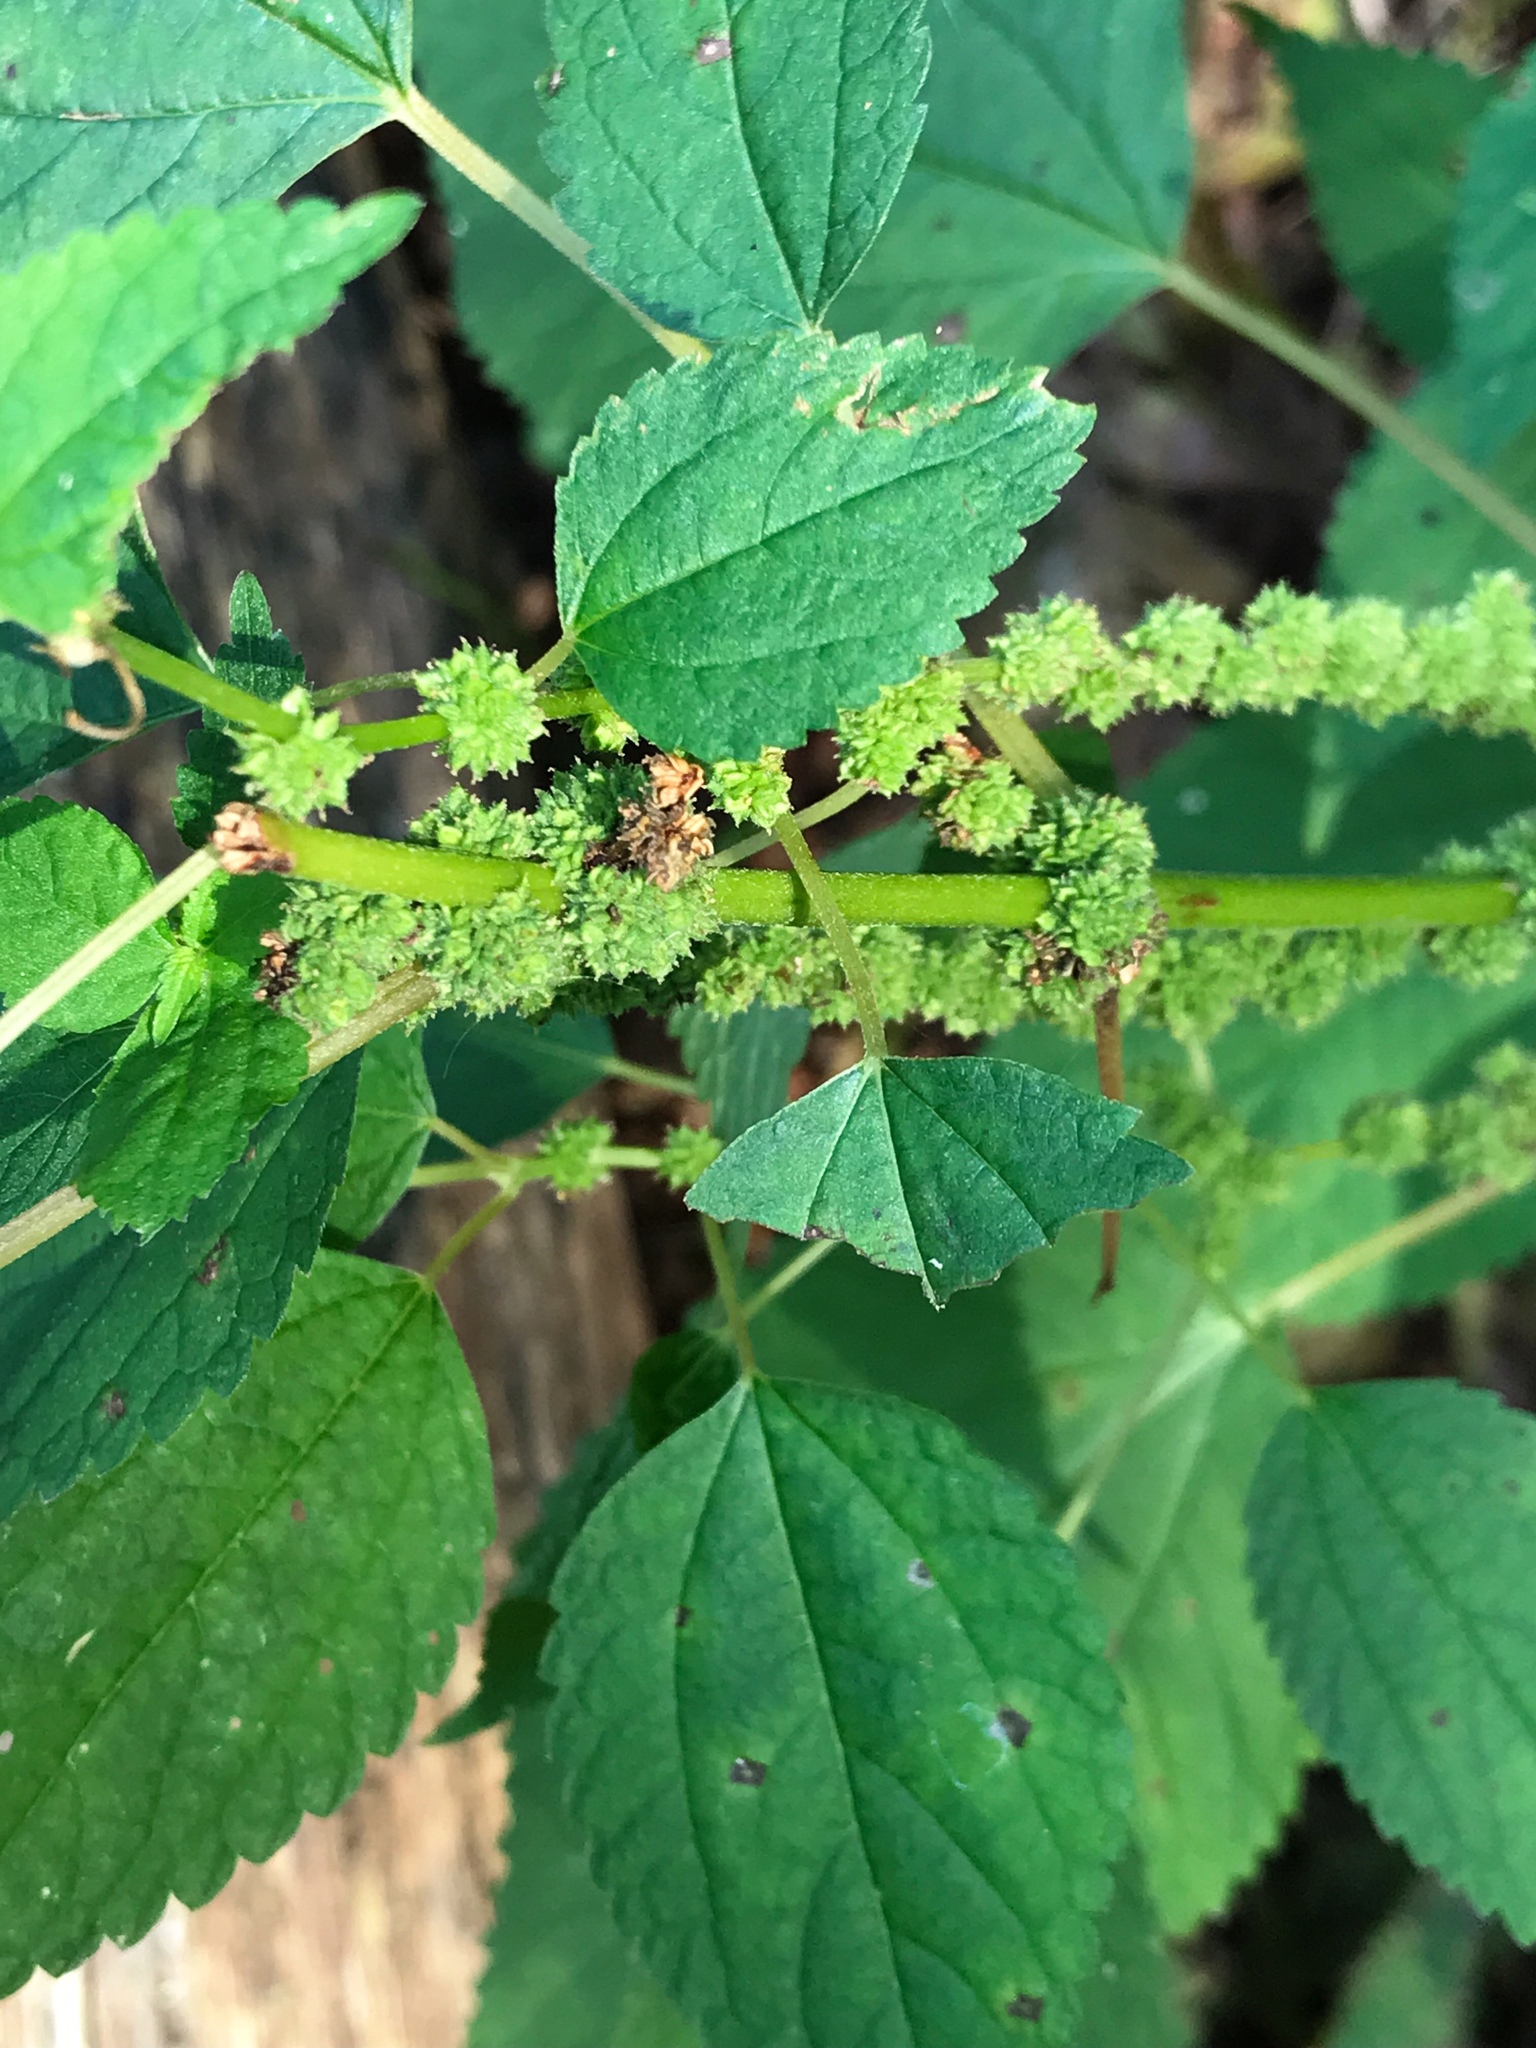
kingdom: Plantae
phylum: Tracheophyta
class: Magnoliopsida
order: Rosales
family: Urticaceae
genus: Boehmeria
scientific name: Boehmeria cylindrica
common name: Bog-hemp
